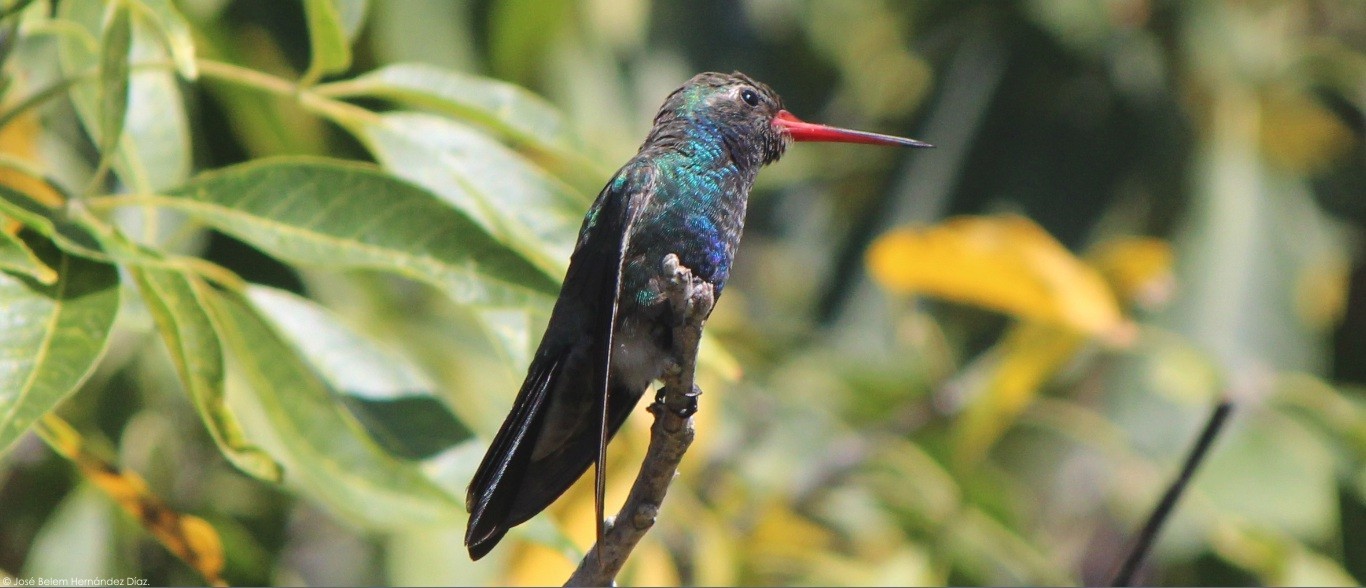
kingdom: Animalia
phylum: Chordata
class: Aves
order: Apodiformes
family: Trochilidae
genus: Cynanthus
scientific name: Cynanthus latirostris
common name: Broad-billed hummingbird
